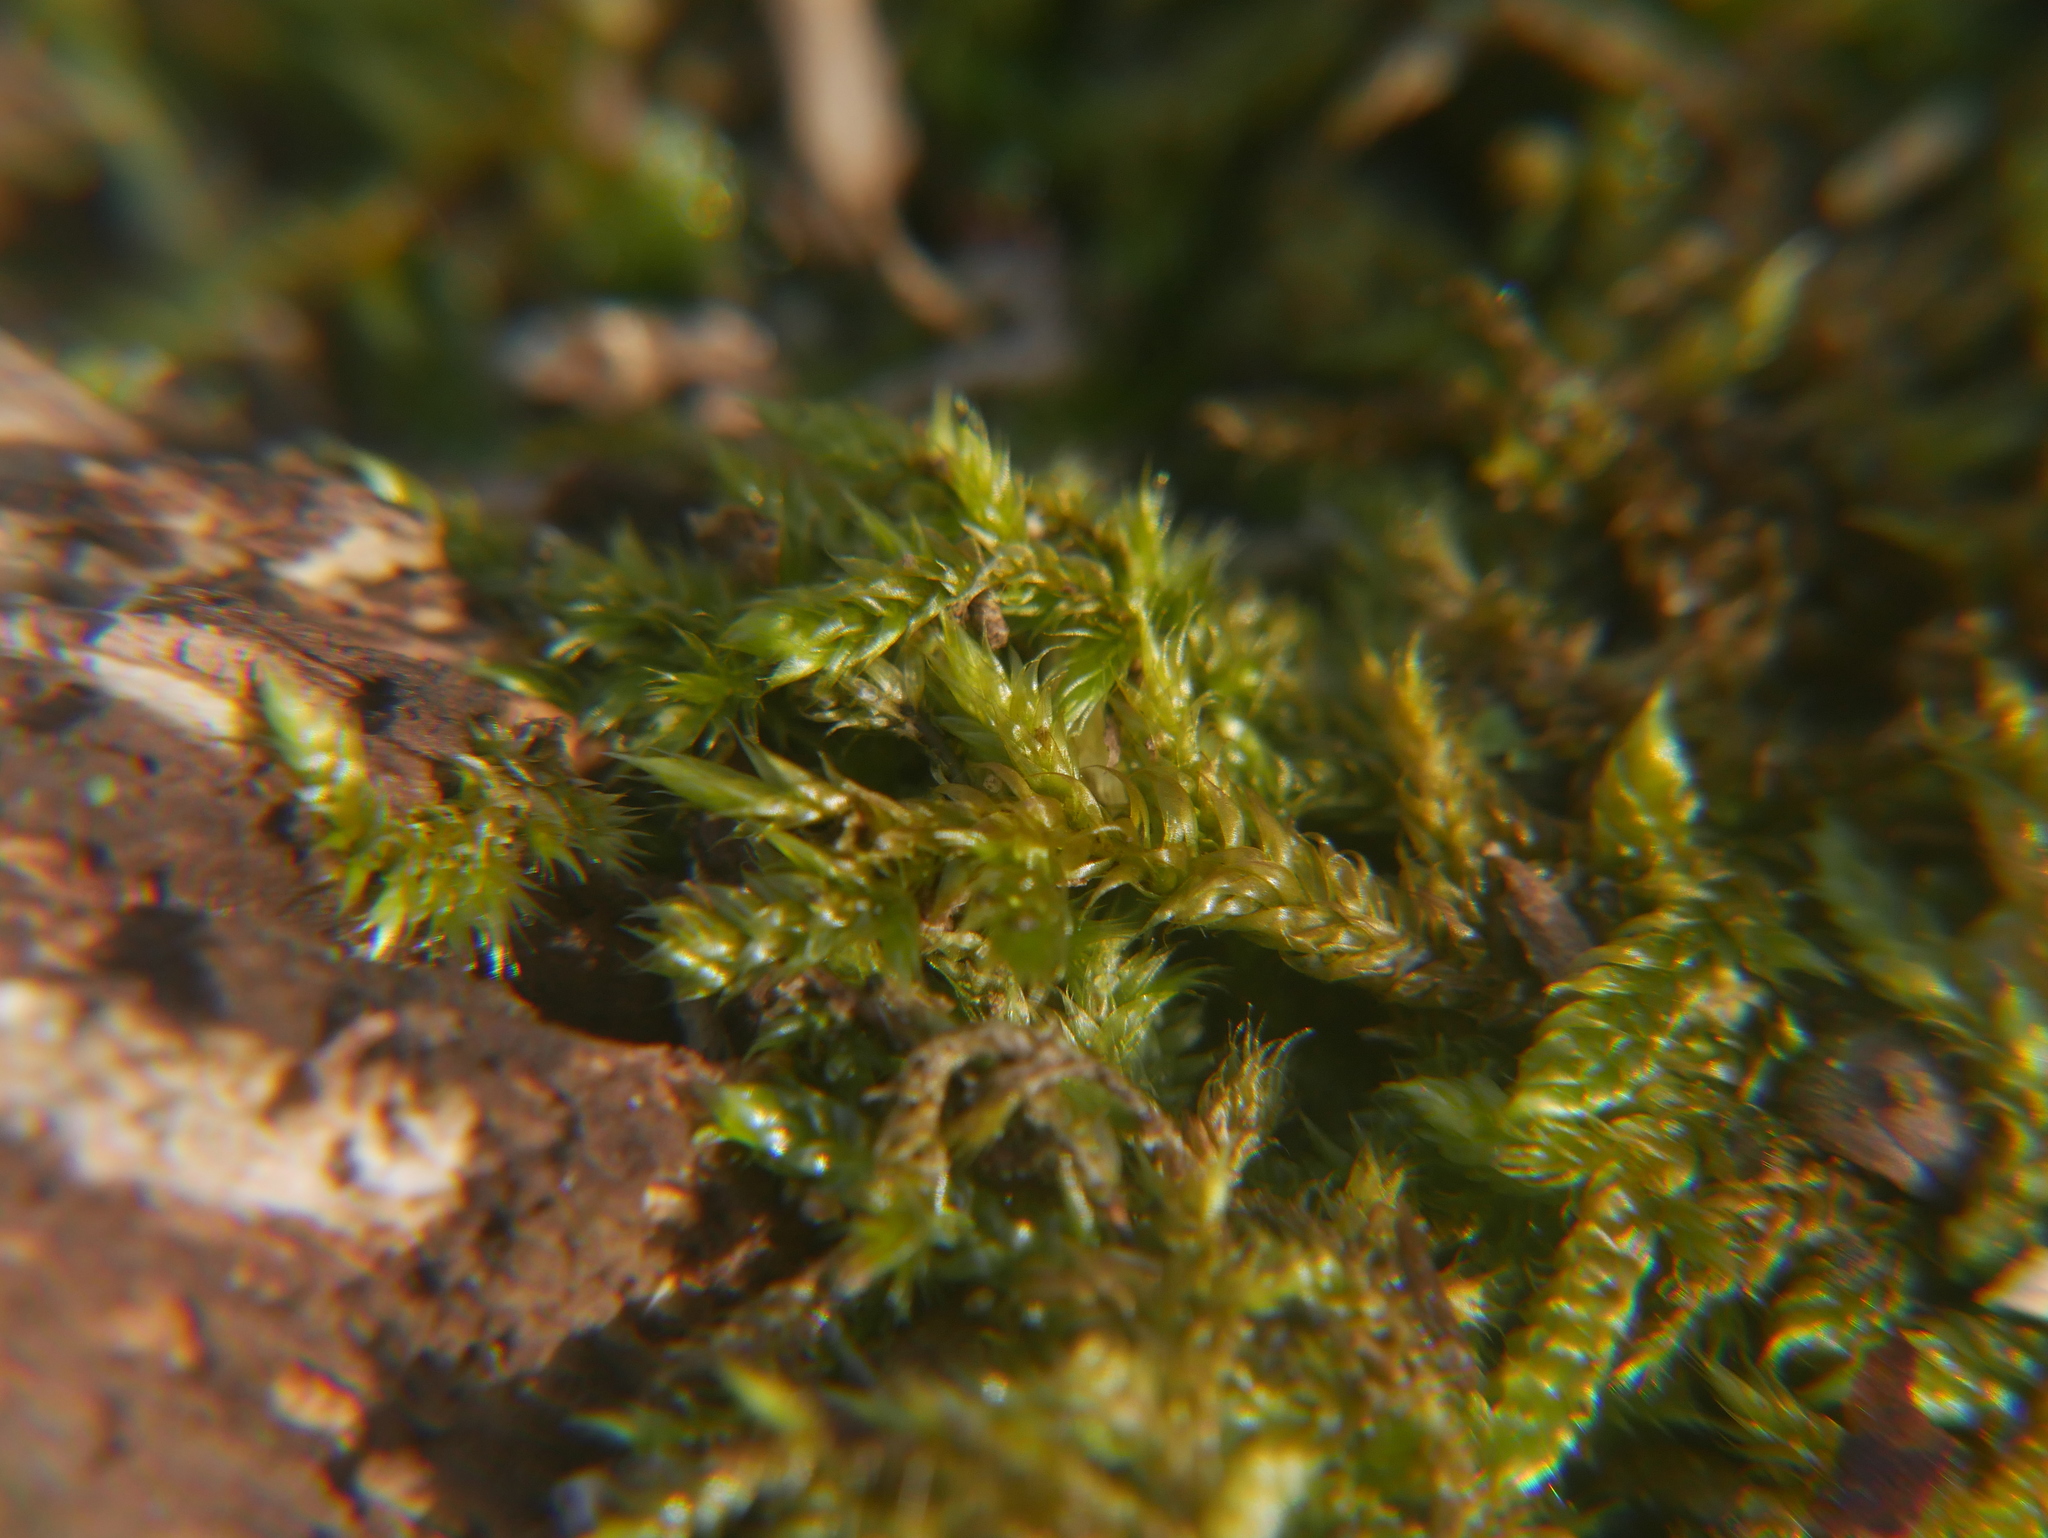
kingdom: Plantae
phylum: Bryophyta
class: Bryopsida
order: Hypnales
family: Hypnaceae
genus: Hypnum
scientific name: Hypnum cupressiforme
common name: Cypress-leaved plait-moss
